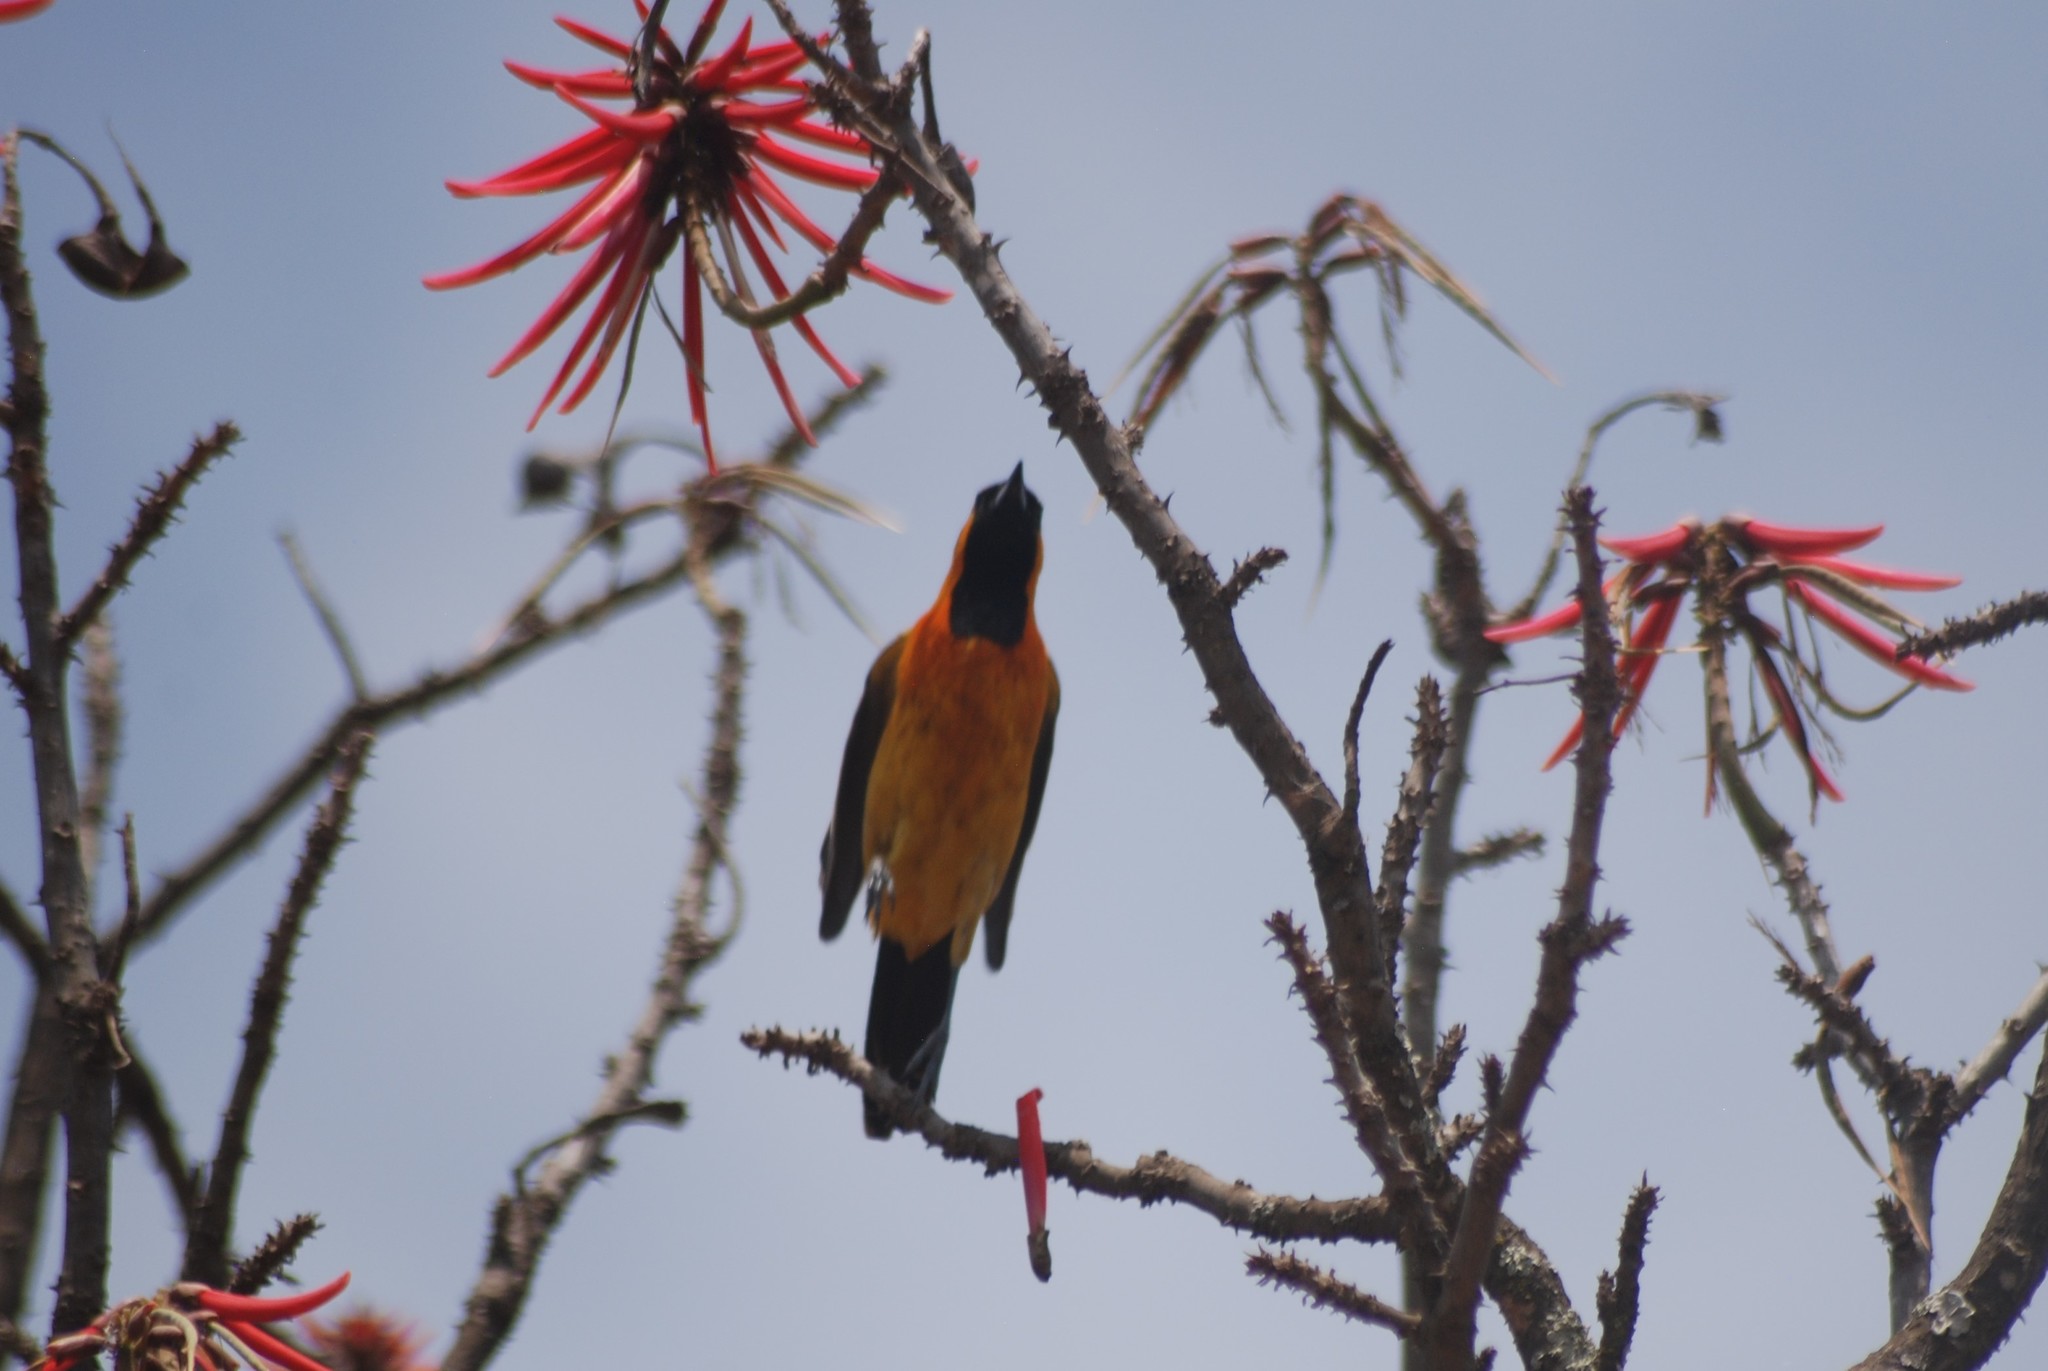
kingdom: Animalia
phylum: Chordata
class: Aves
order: Passeriformes
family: Icteridae
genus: Icterus
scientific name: Icterus cucullatus
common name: Hooded oriole
